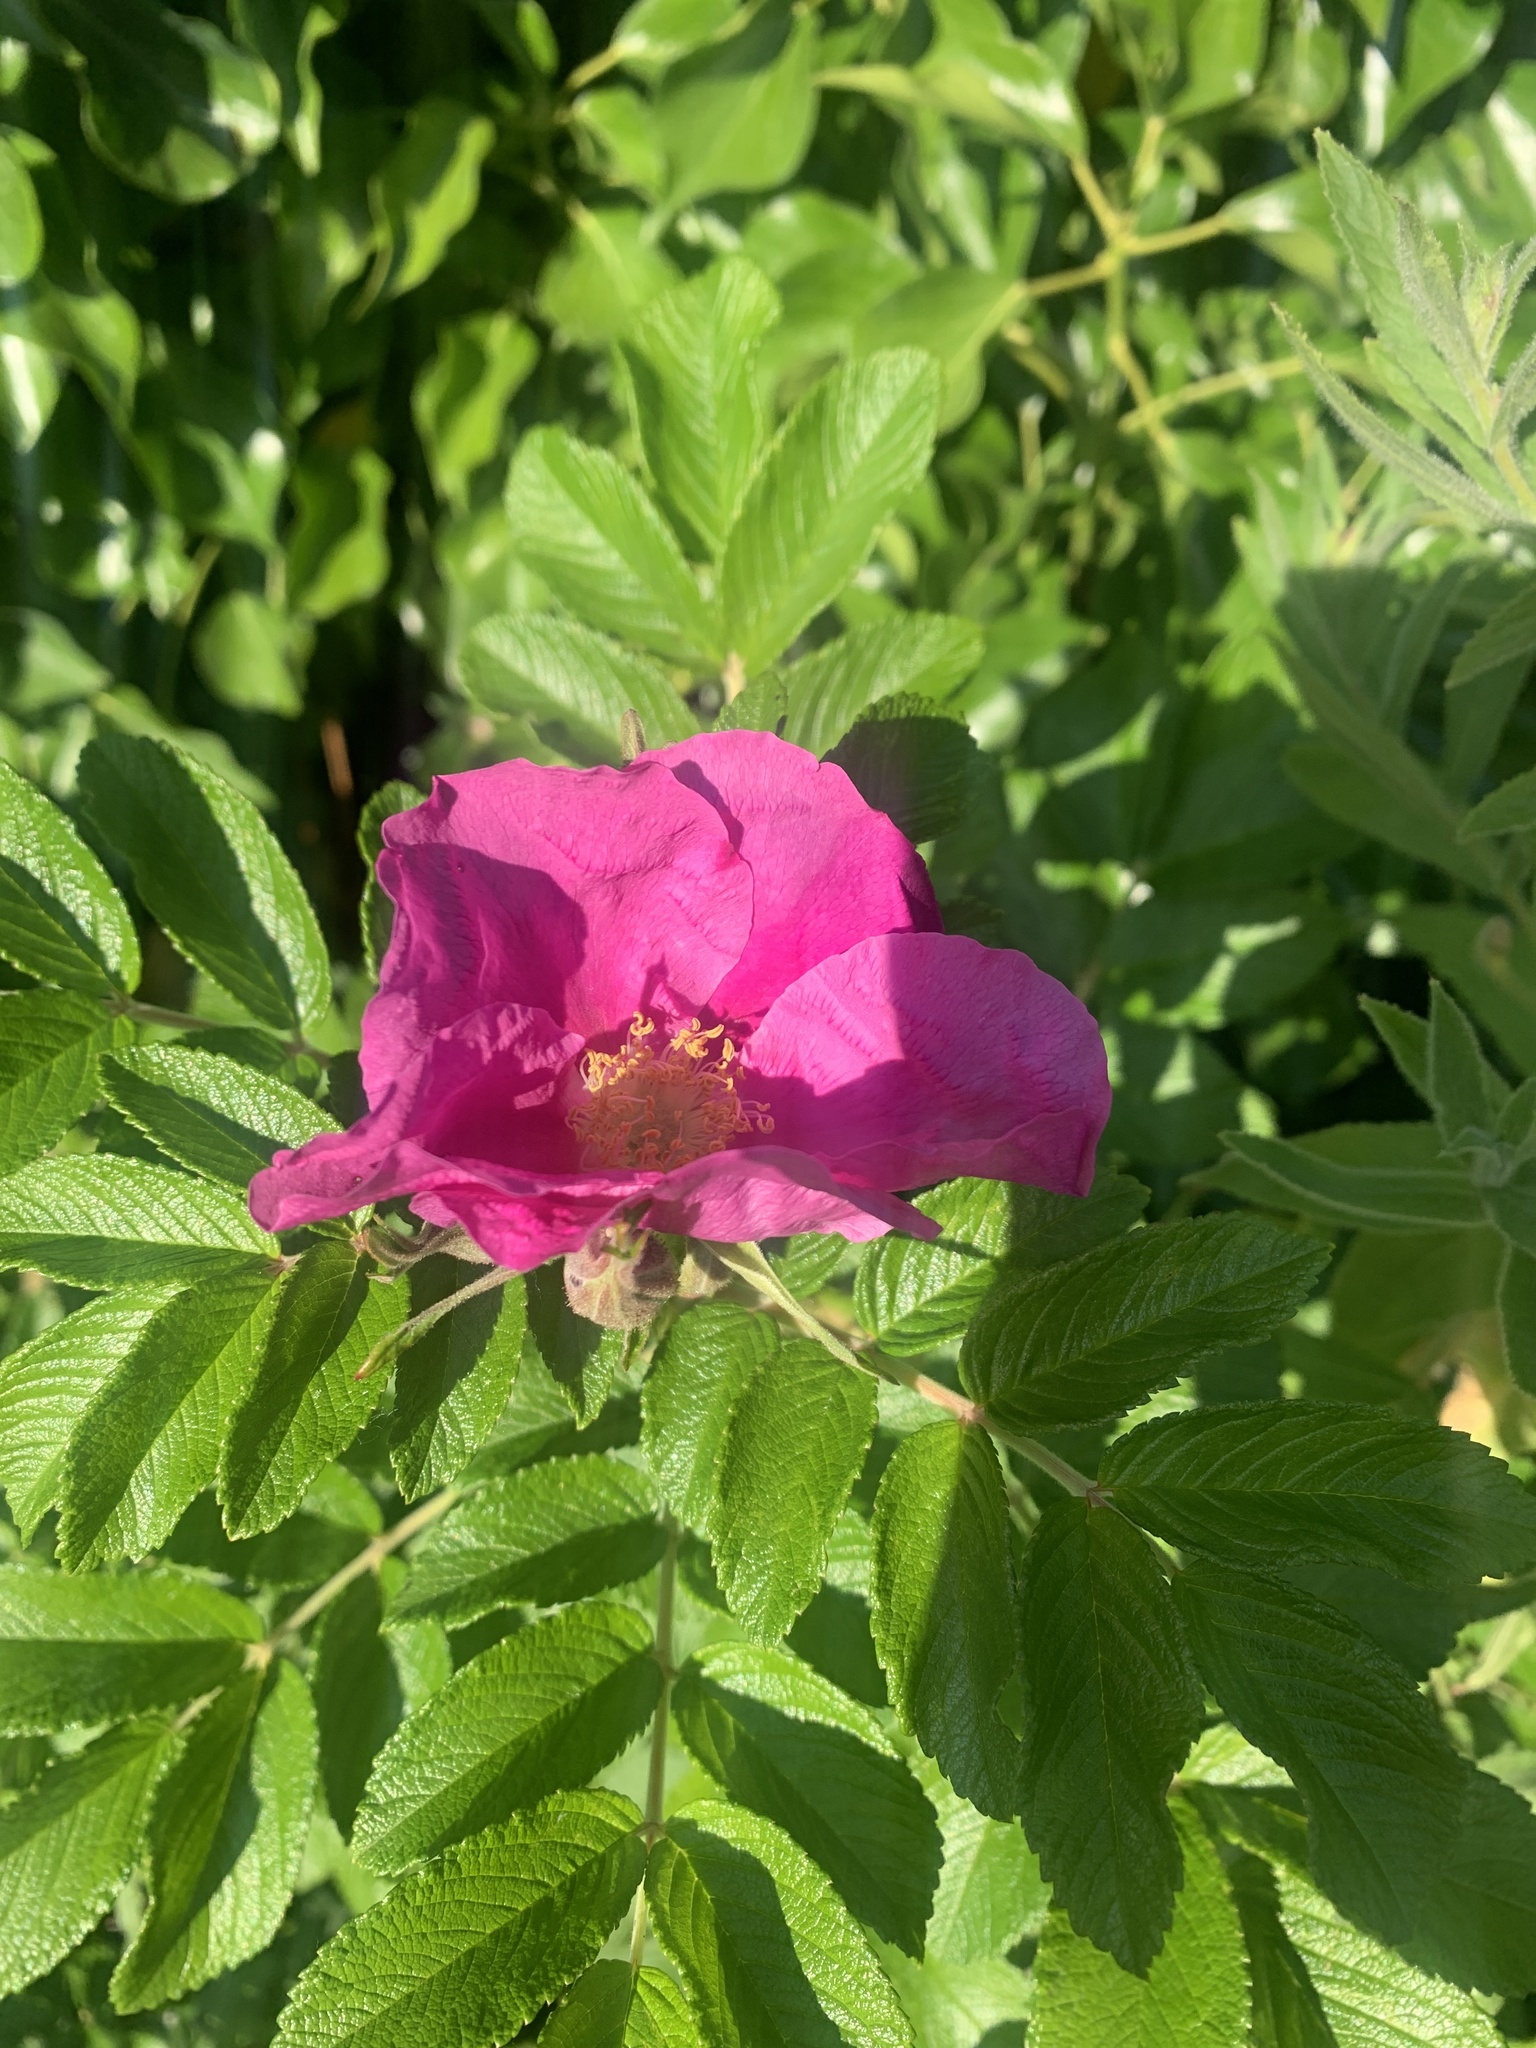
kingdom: Plantae
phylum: Tracheophyta
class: Magnoliopsida
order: Rosales
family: Rosaceae
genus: Rosa
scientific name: Rosa rugosa
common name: Japanese rose
